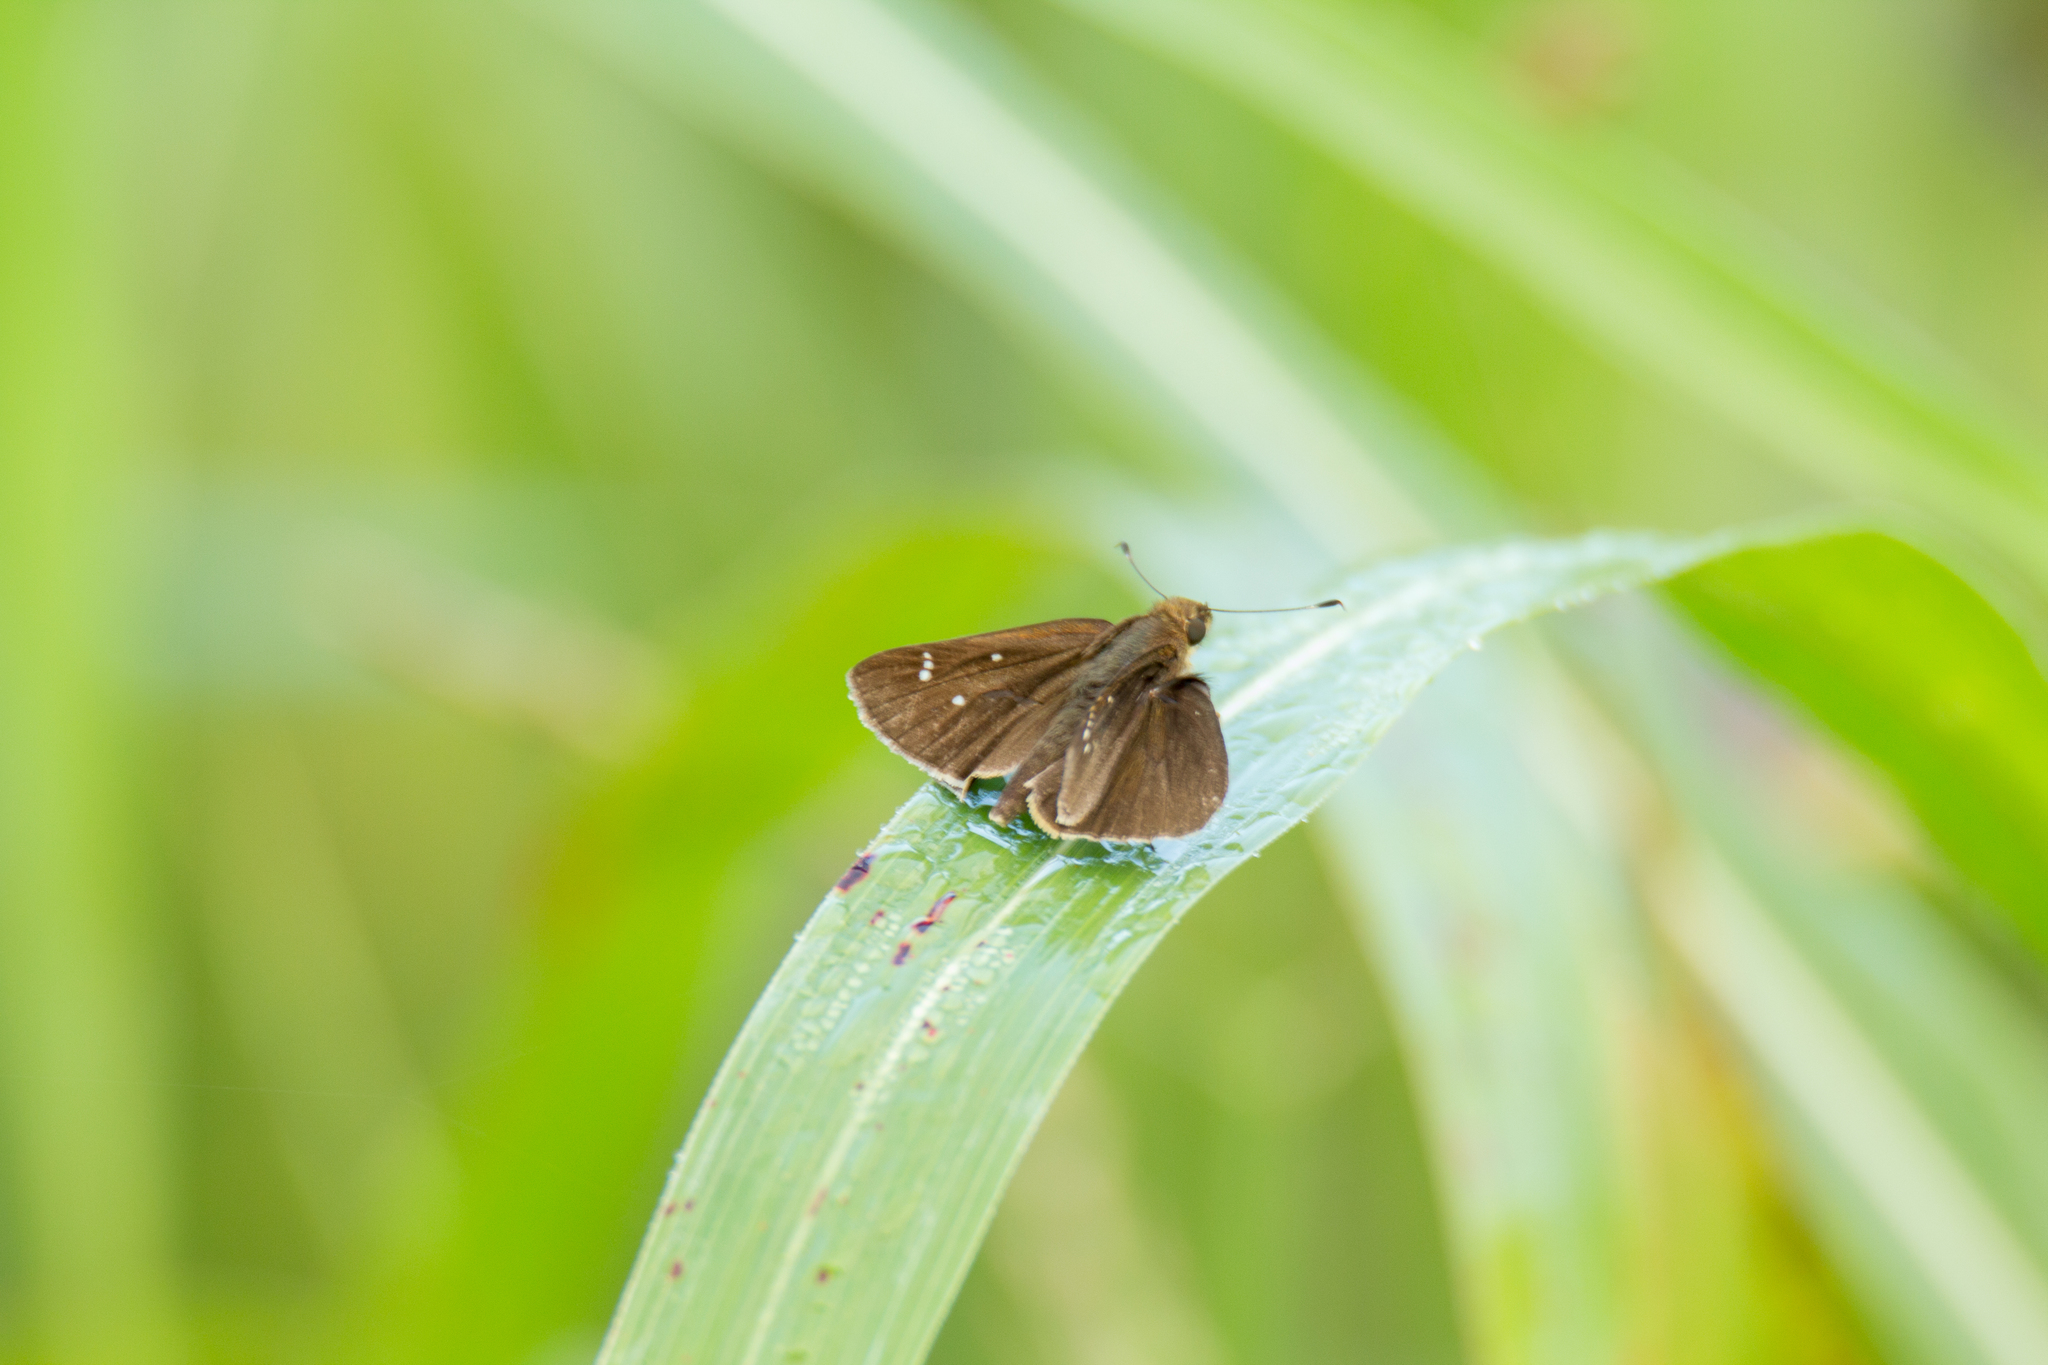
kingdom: Animalia
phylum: Arthropoda
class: Insecta
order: Lepidoptera
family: Hesperiidae
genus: Lerema
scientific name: Lerema accius
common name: Clouded skipper
